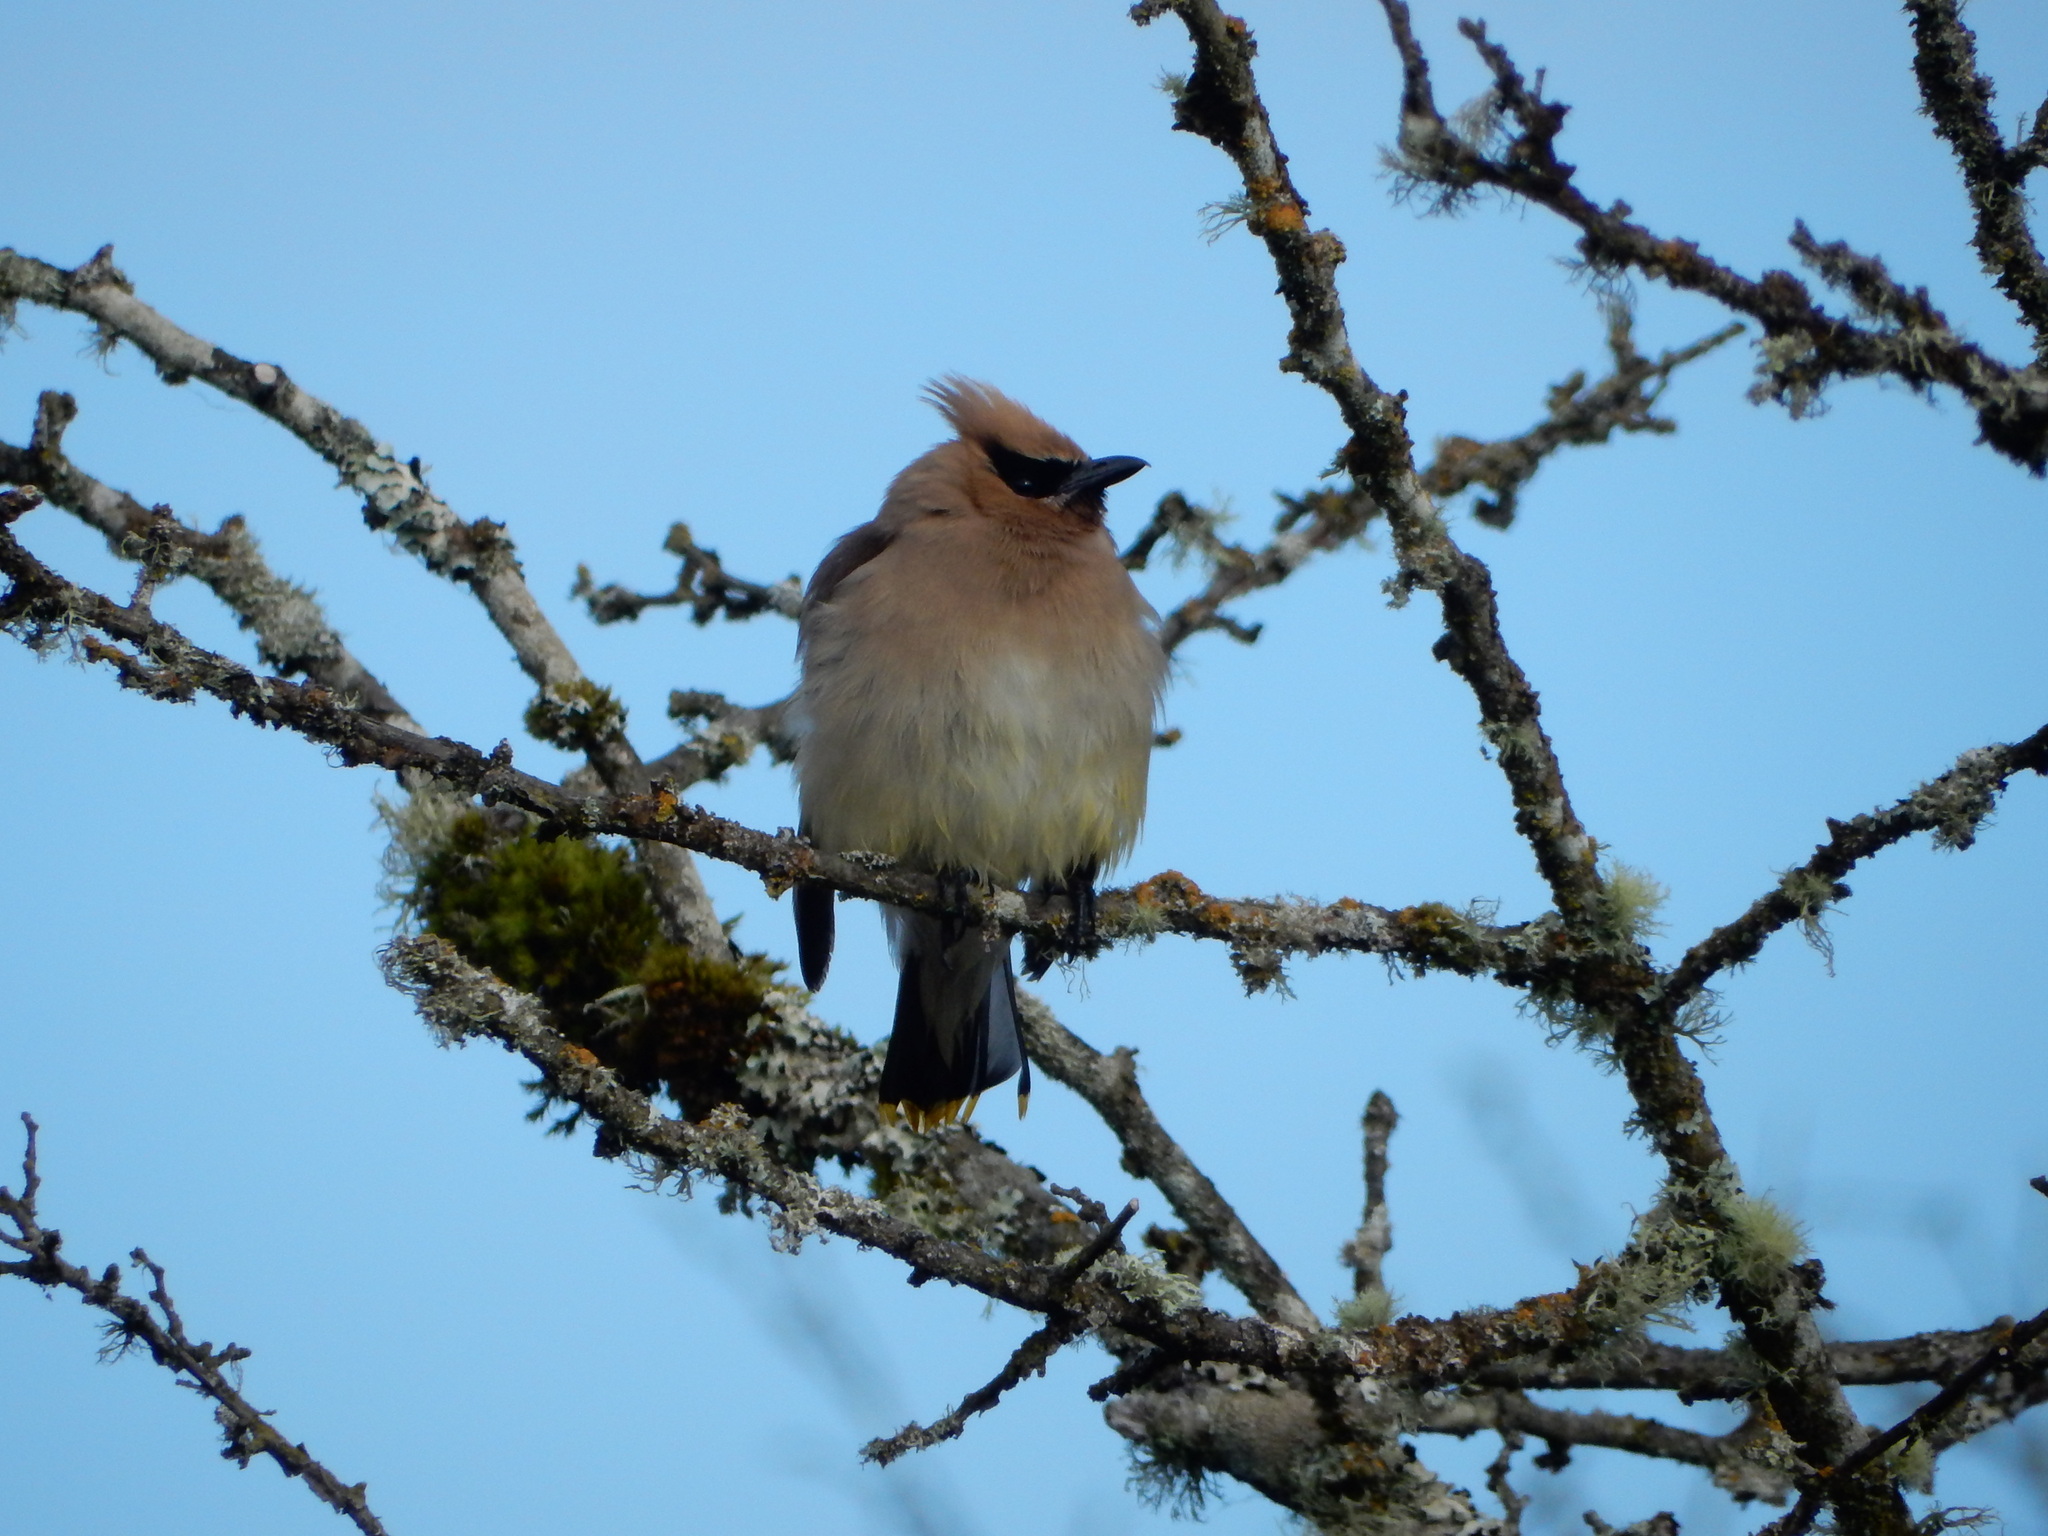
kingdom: Animalia
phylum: Chordata
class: Aves
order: Passeriformes
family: Bombycillidae
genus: Bombycilla
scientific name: Bombycilla cedrorum
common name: Cedar waxwing
